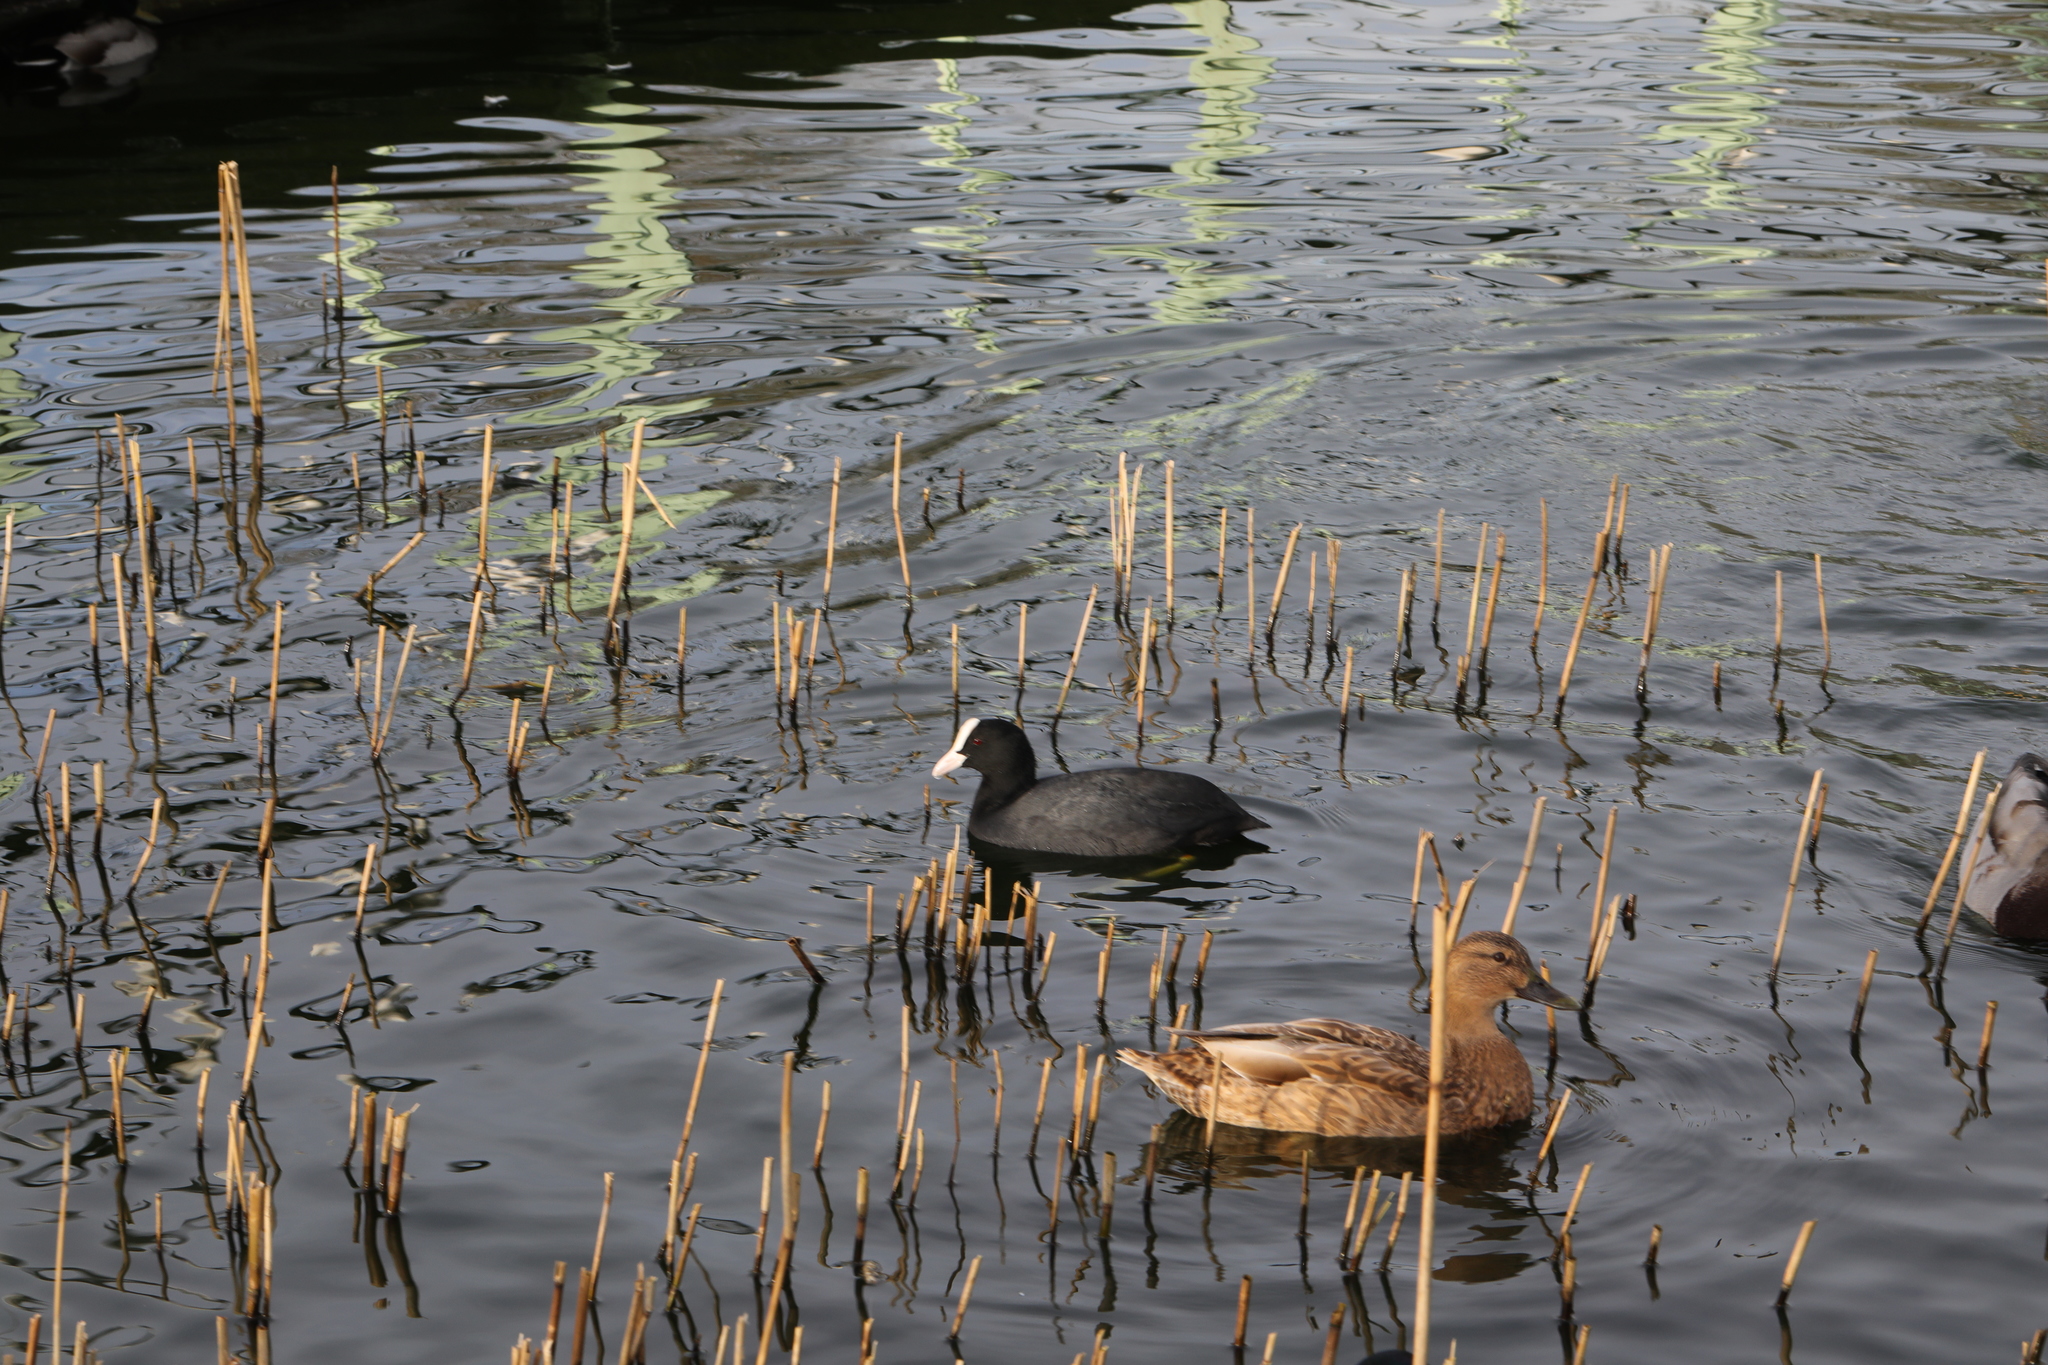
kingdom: Animalia
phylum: Chordata
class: Aves
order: Gruiformes
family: Rallidae
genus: Fulica
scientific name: Fulica atra
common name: Eurasian coot
